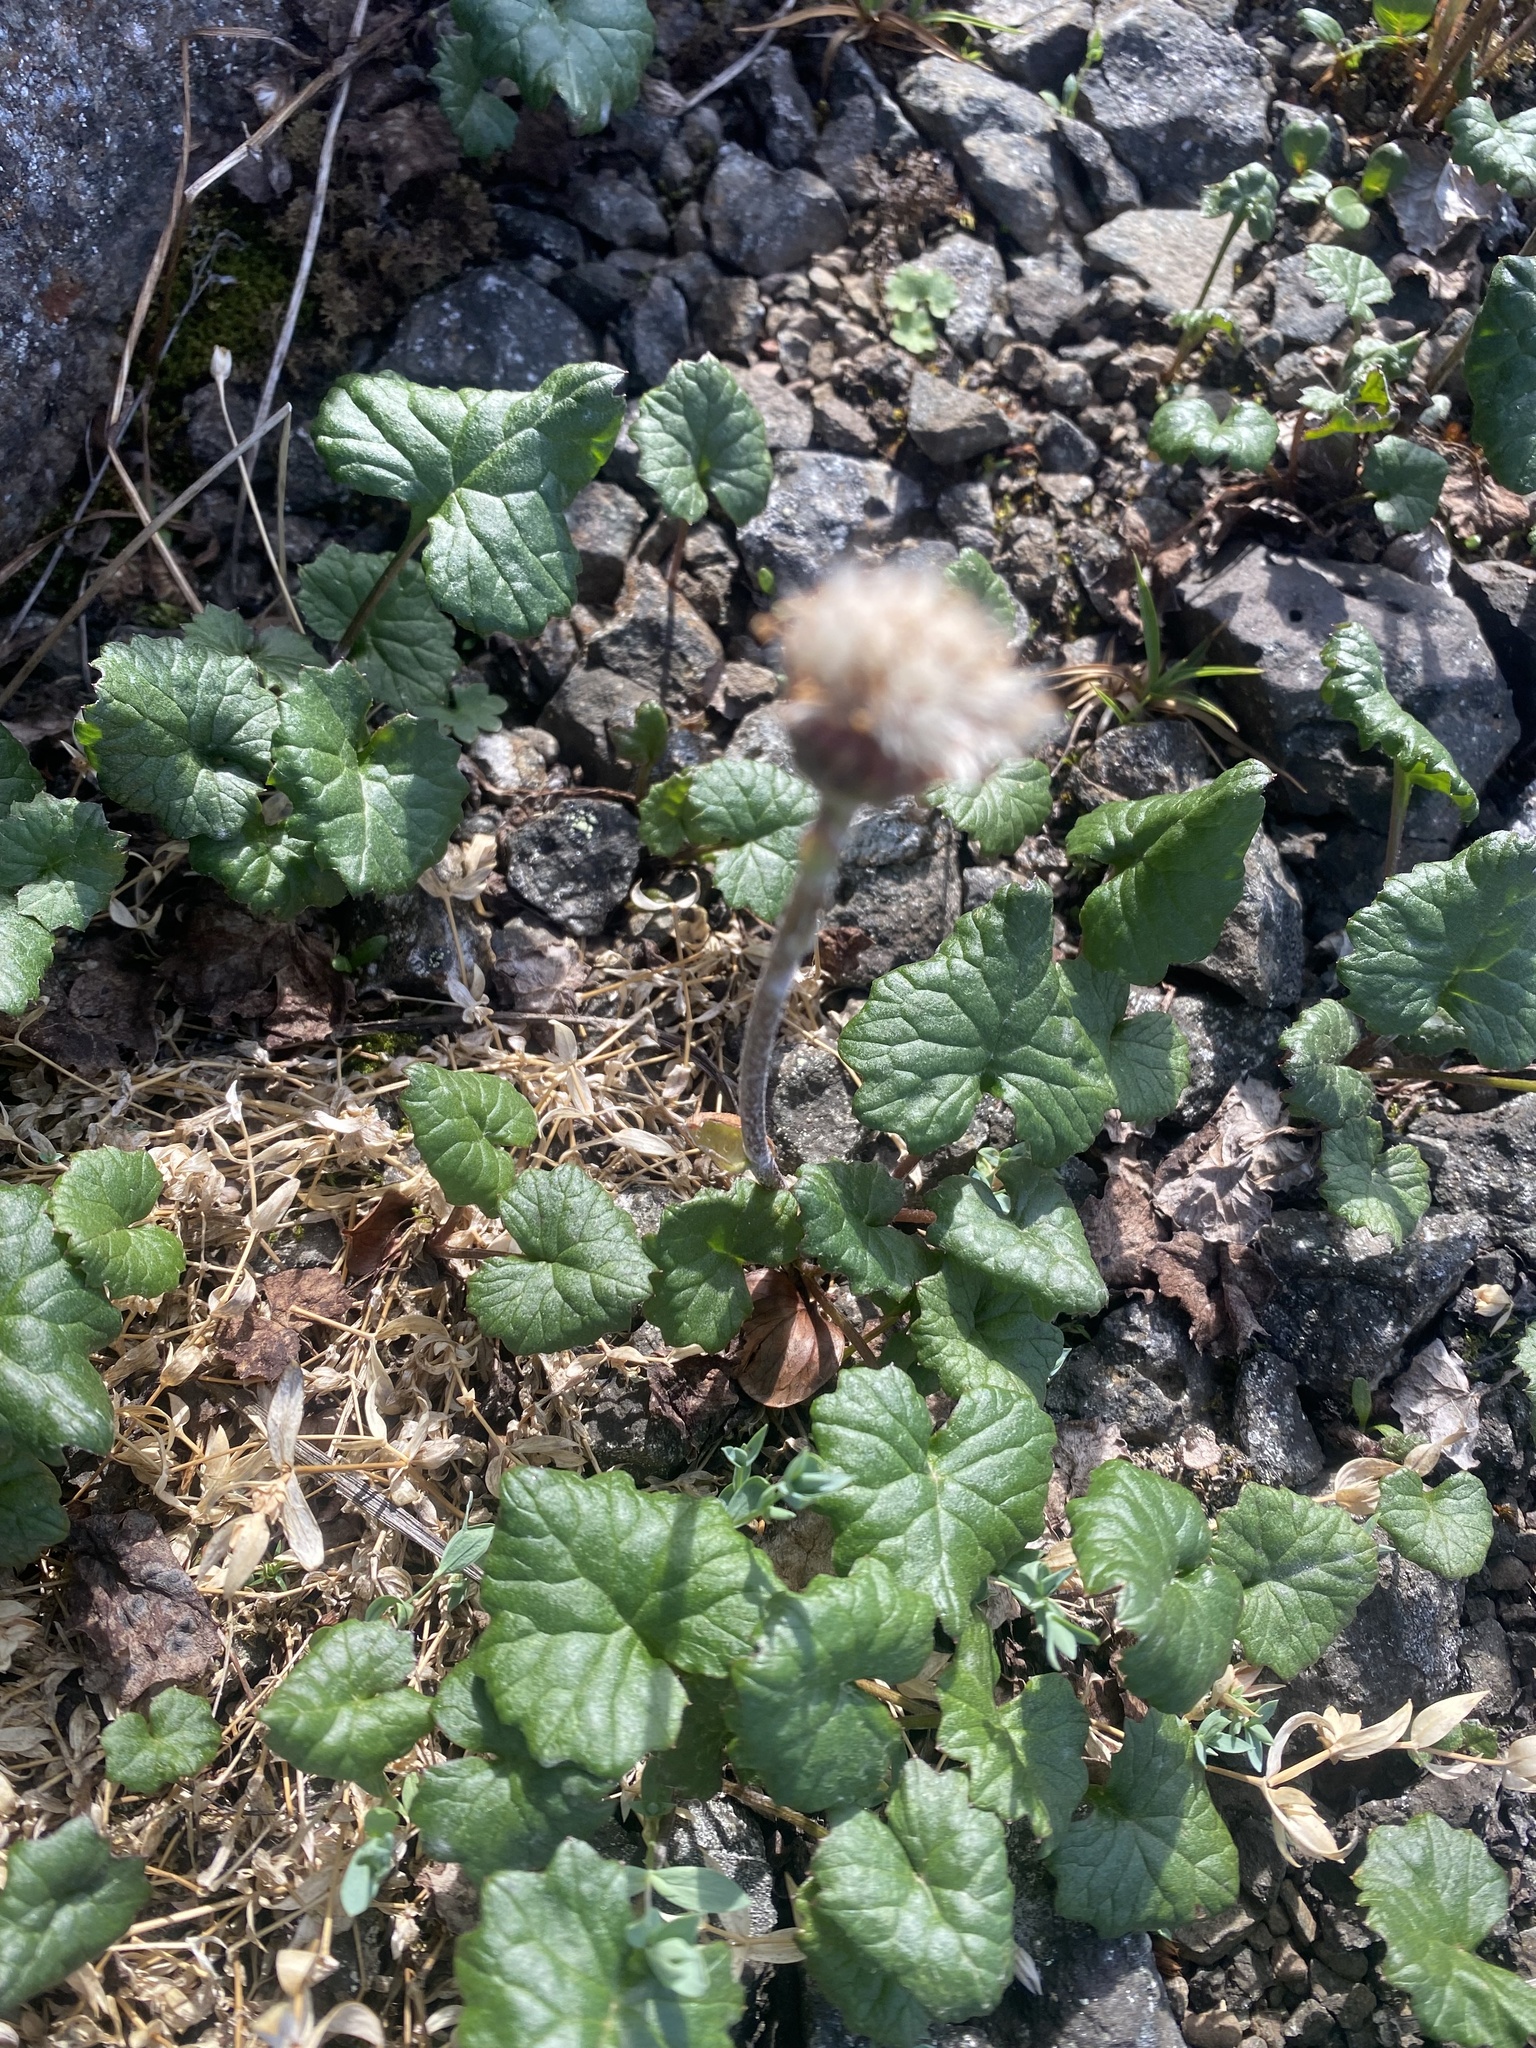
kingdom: Plantae
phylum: Tracheophyta
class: Magnoliopsida
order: Asterales
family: Asteraceae
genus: Endocellion
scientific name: Endocellion glaciale
